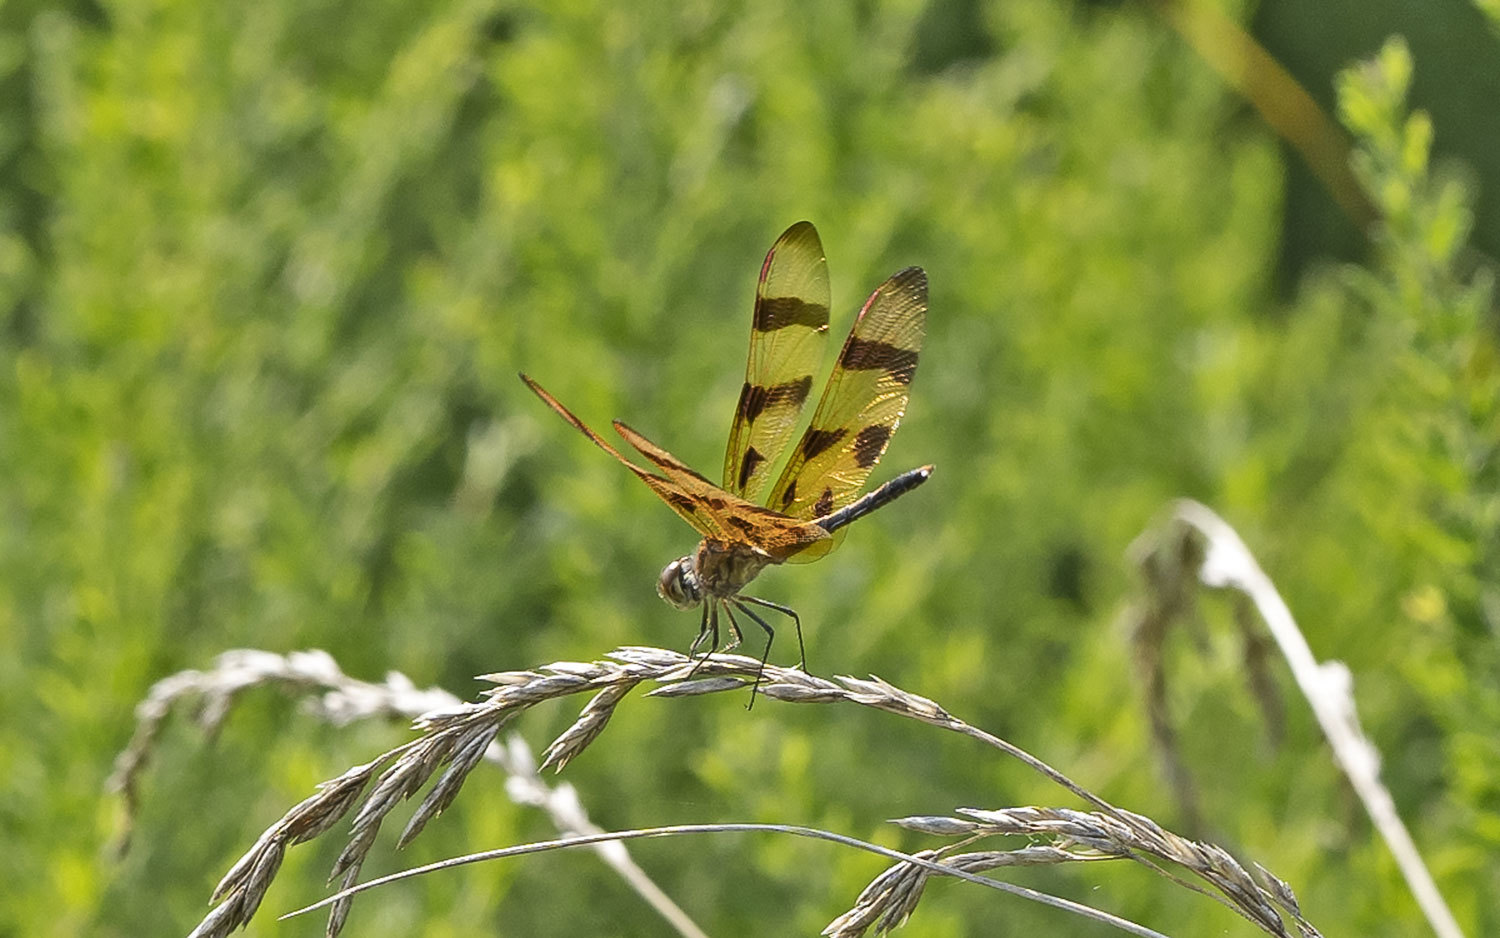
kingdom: Animalia
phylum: Arthropoda
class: Insecta
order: Odonata
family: Libellulidae
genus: Celithemis
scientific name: Celithemis eponina
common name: Halloween pennant
